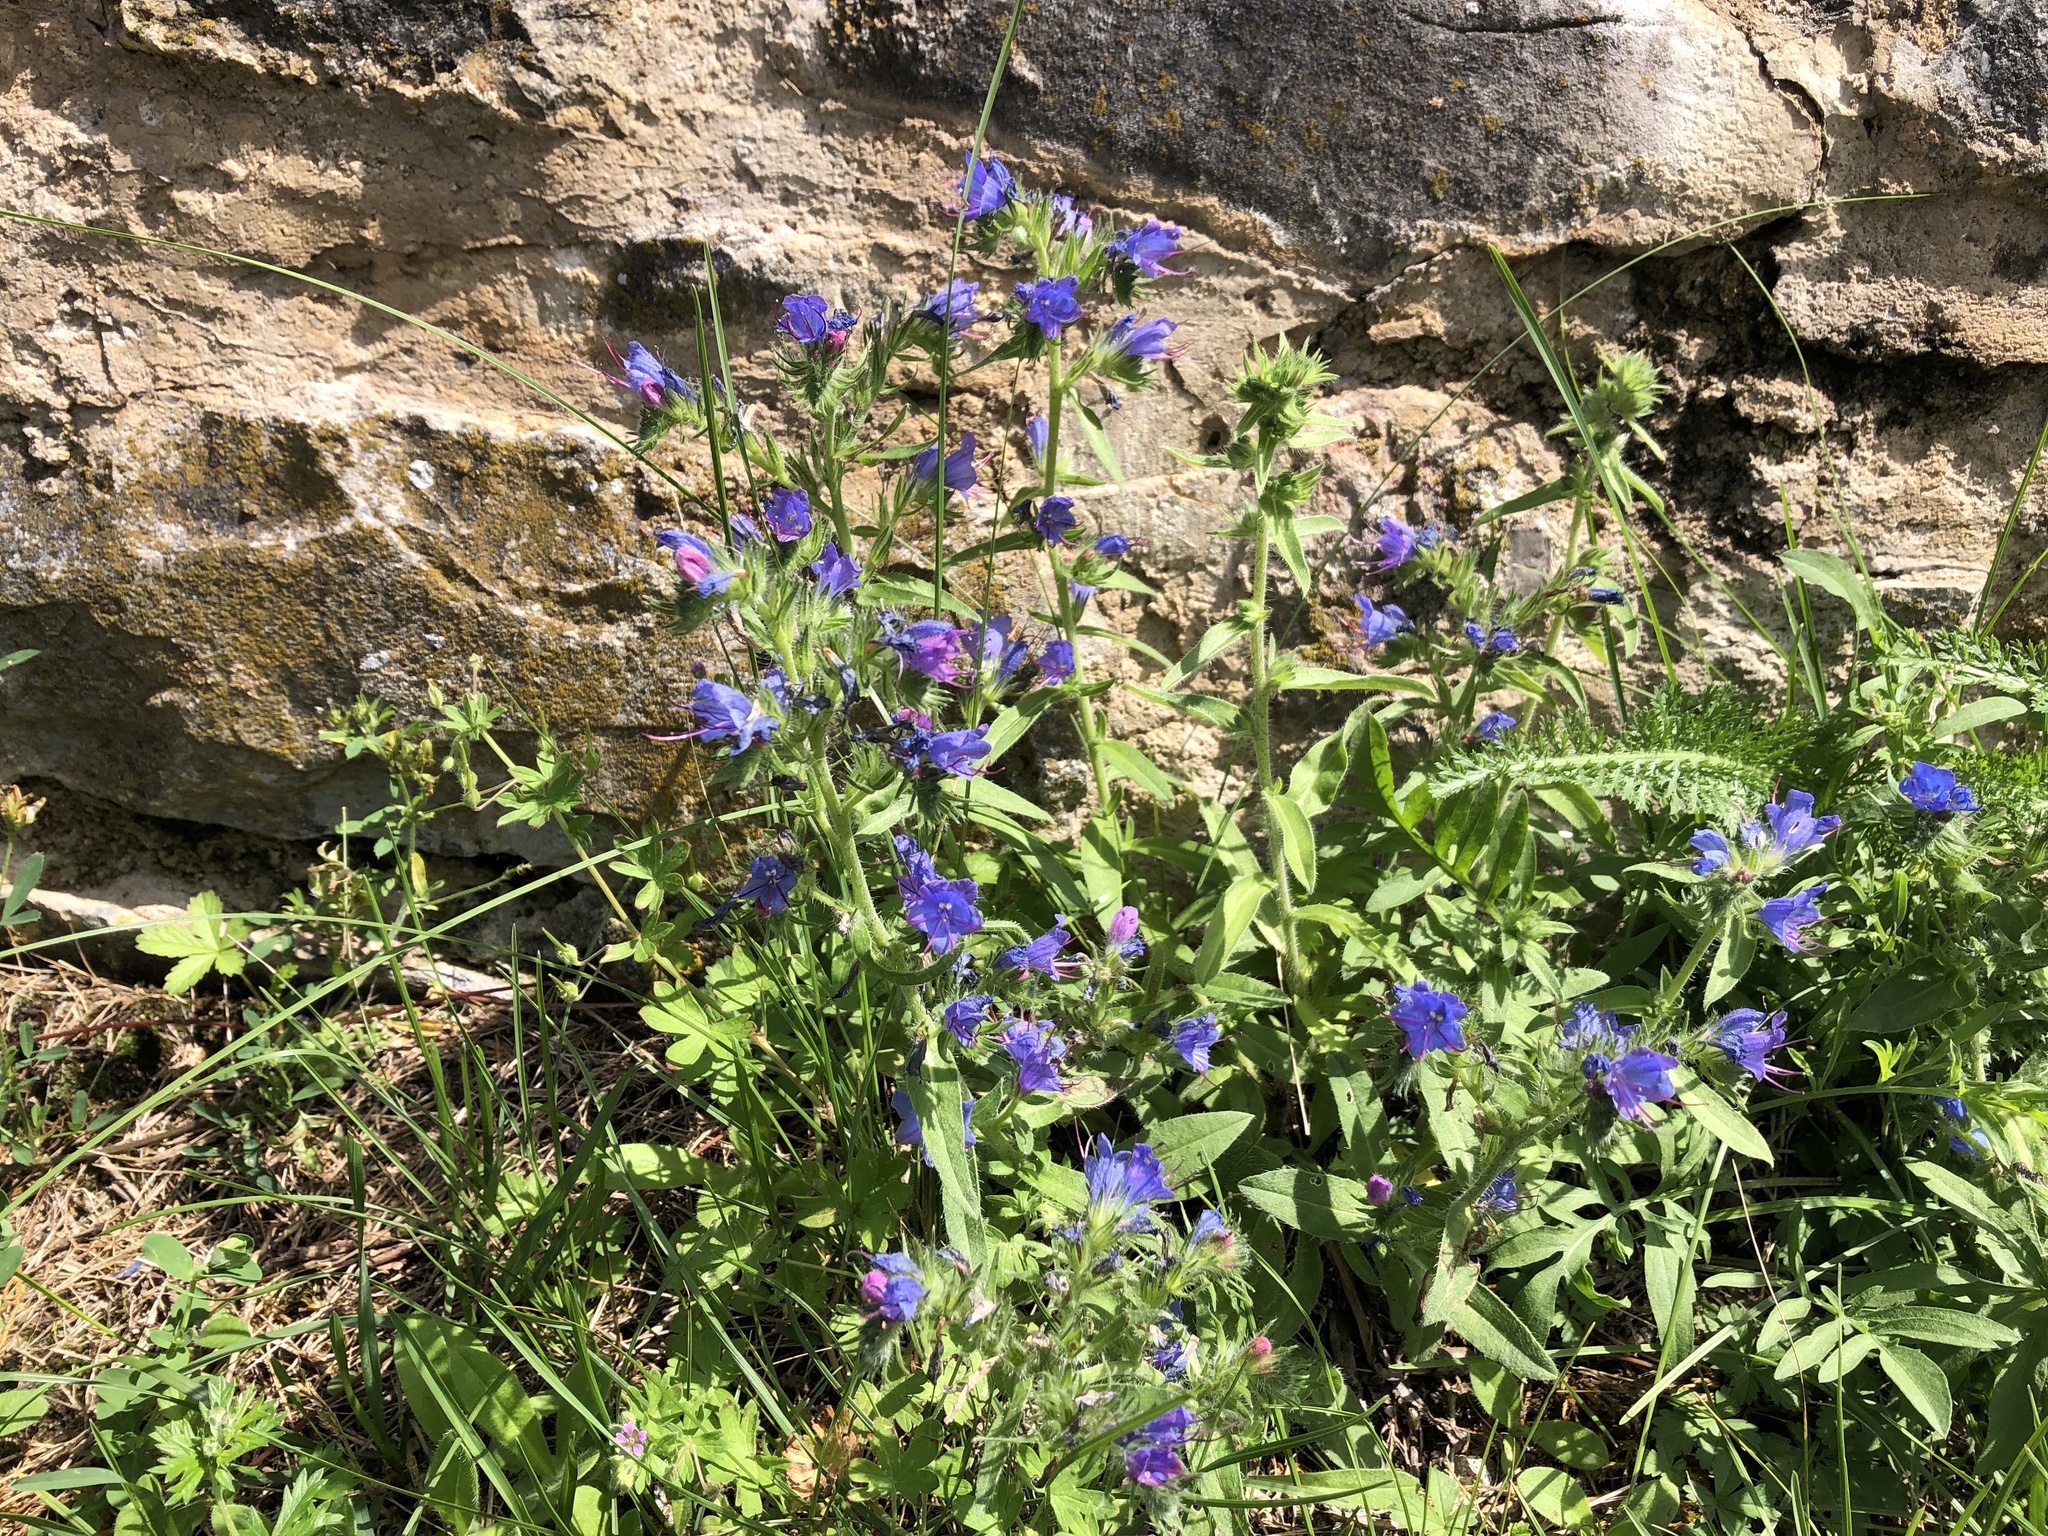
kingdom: Plantae
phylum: Tracheophyta
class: Magnoliopsida
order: Boraginales
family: Boraginaceae
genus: Echium
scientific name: Echium vulgare
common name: Common viper's bugloss
